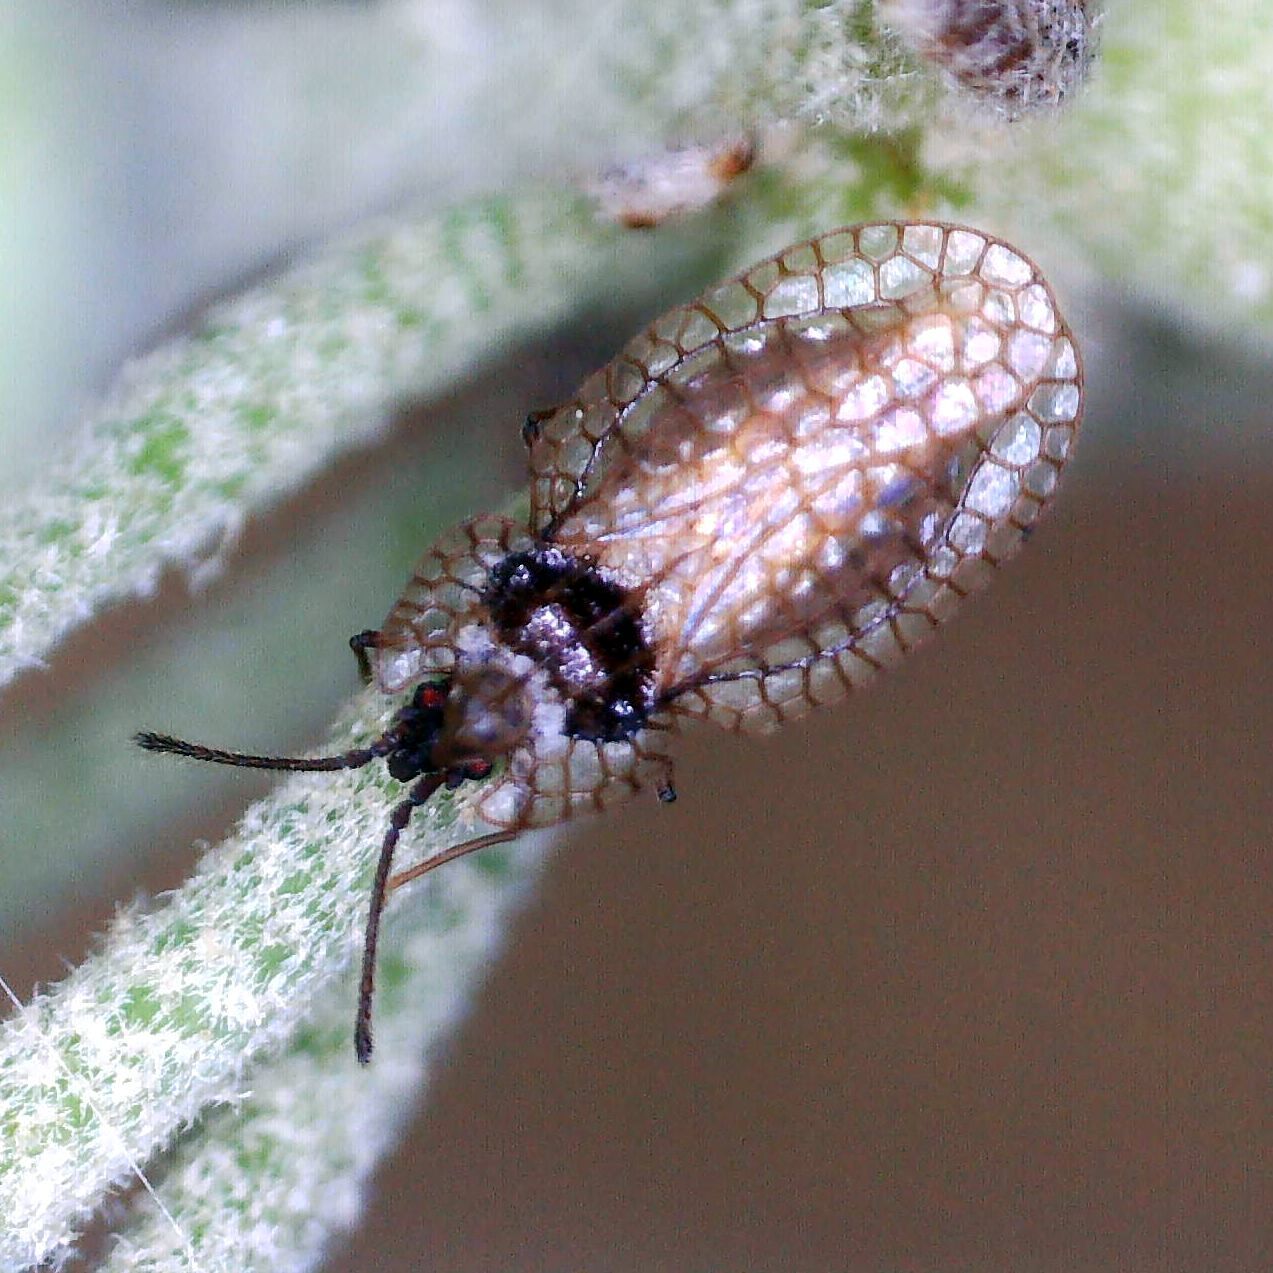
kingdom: Animalia
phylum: Arthropoda
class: Insecta
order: Hemiptera
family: Tingidae
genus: Derephysia
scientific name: Derephysia foliacea
